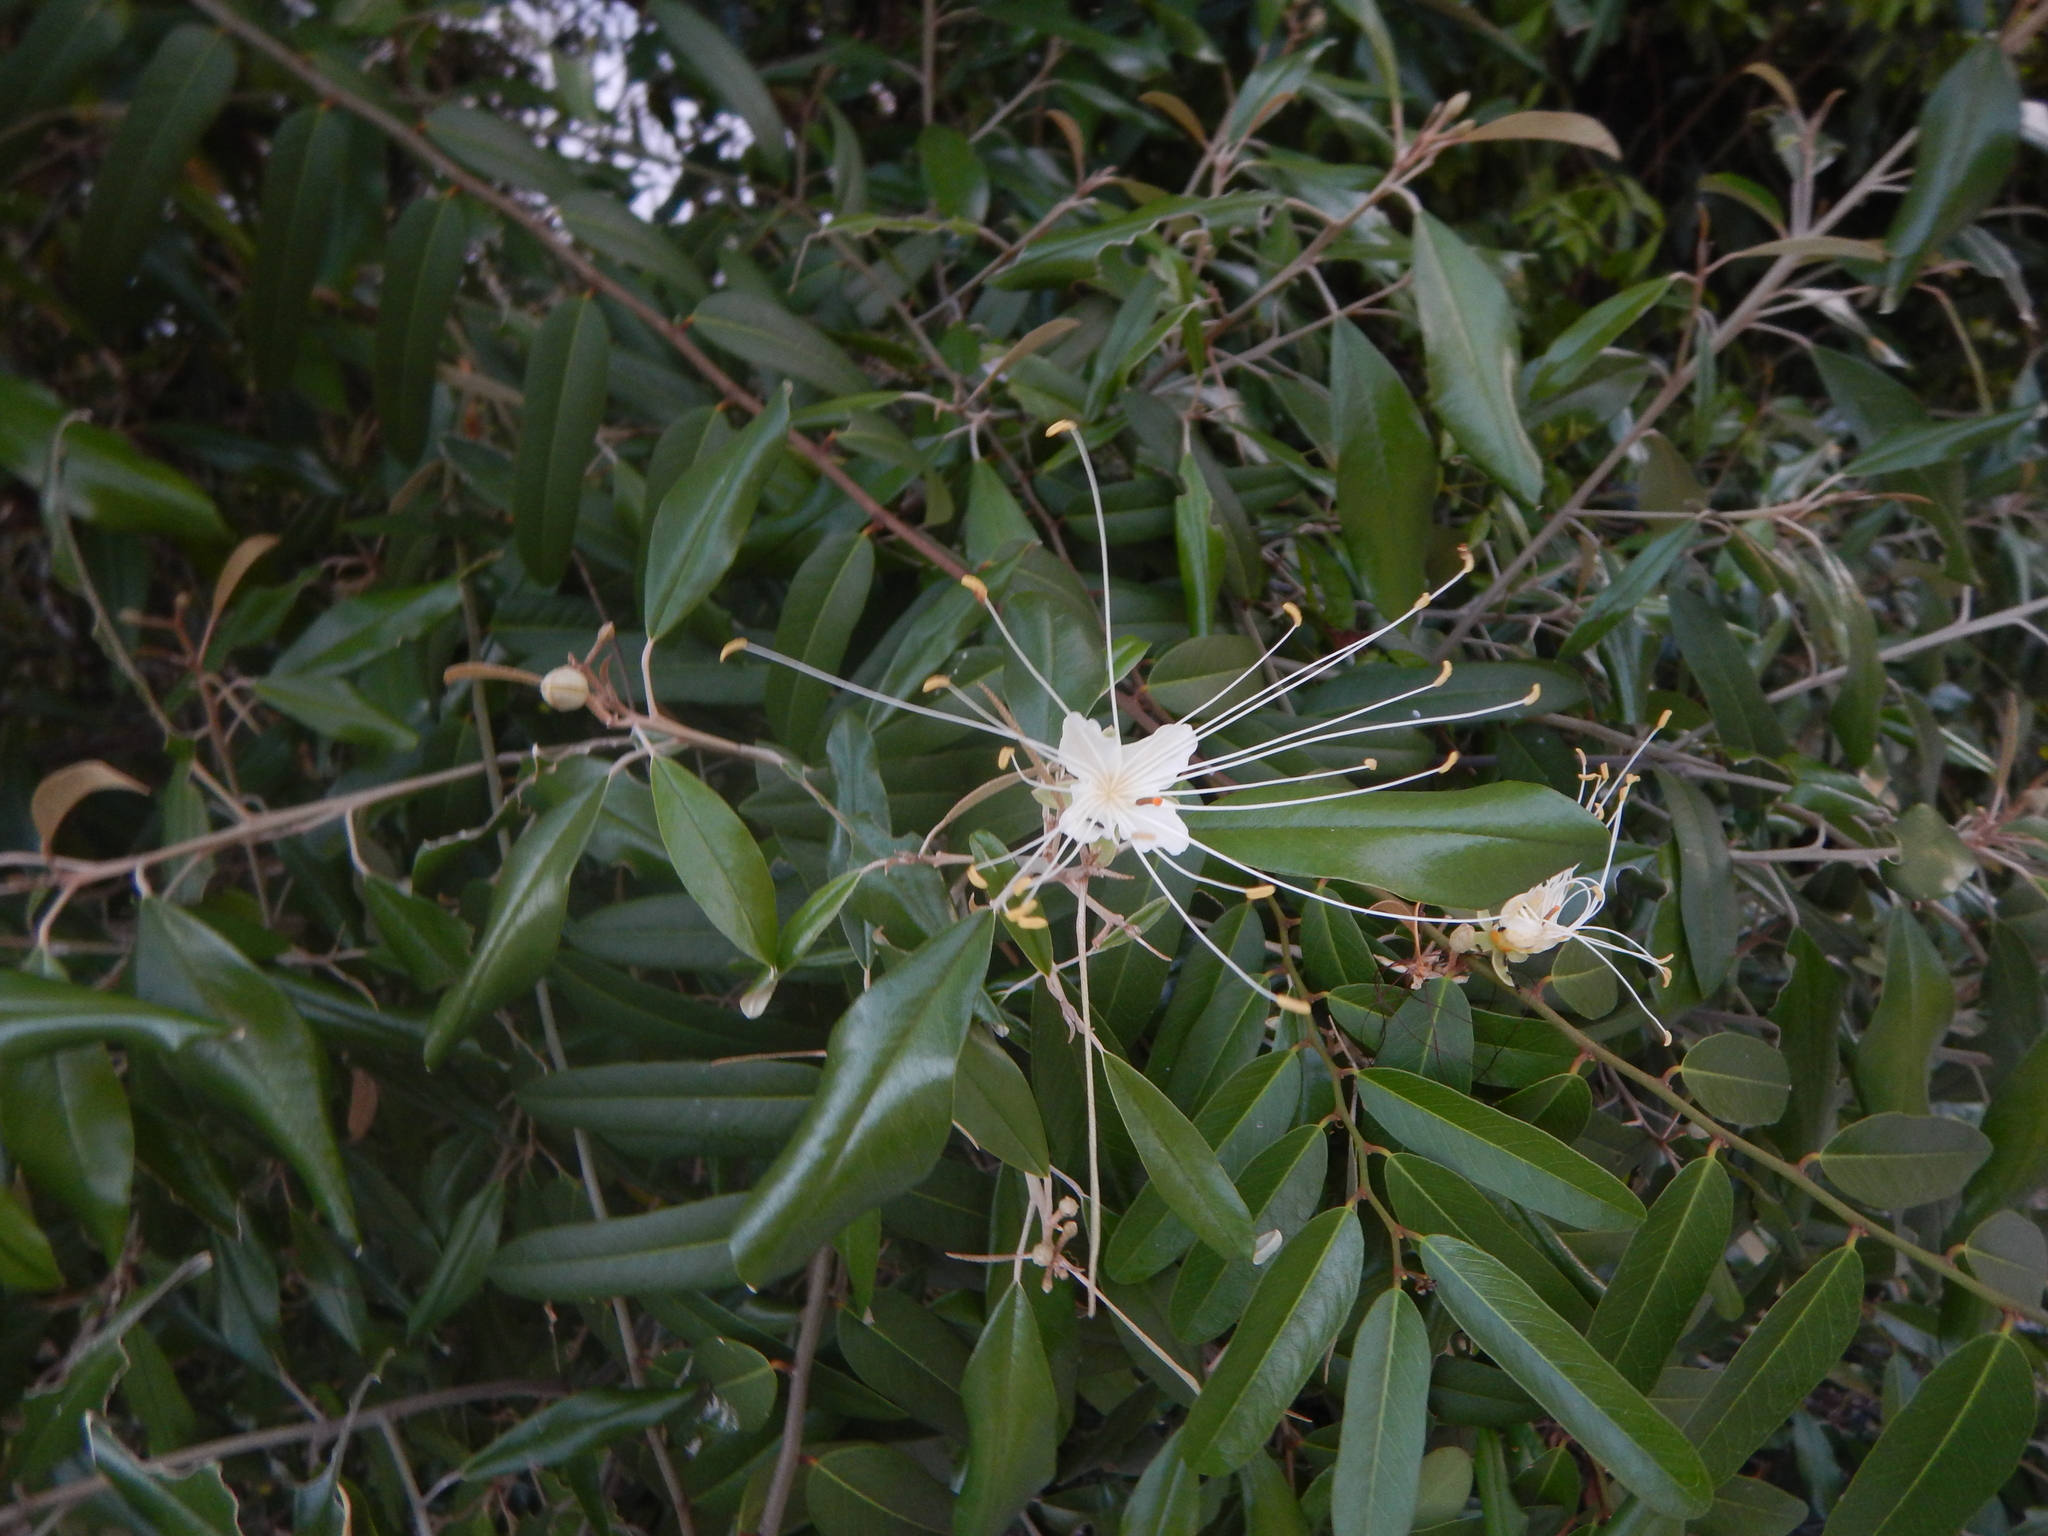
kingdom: Plantae
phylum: Tracheophyta
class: Magnoliopsida
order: Brassicales
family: Capparaceae
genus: Quadrella
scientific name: Quadrella cynophallophora
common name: Black willow
